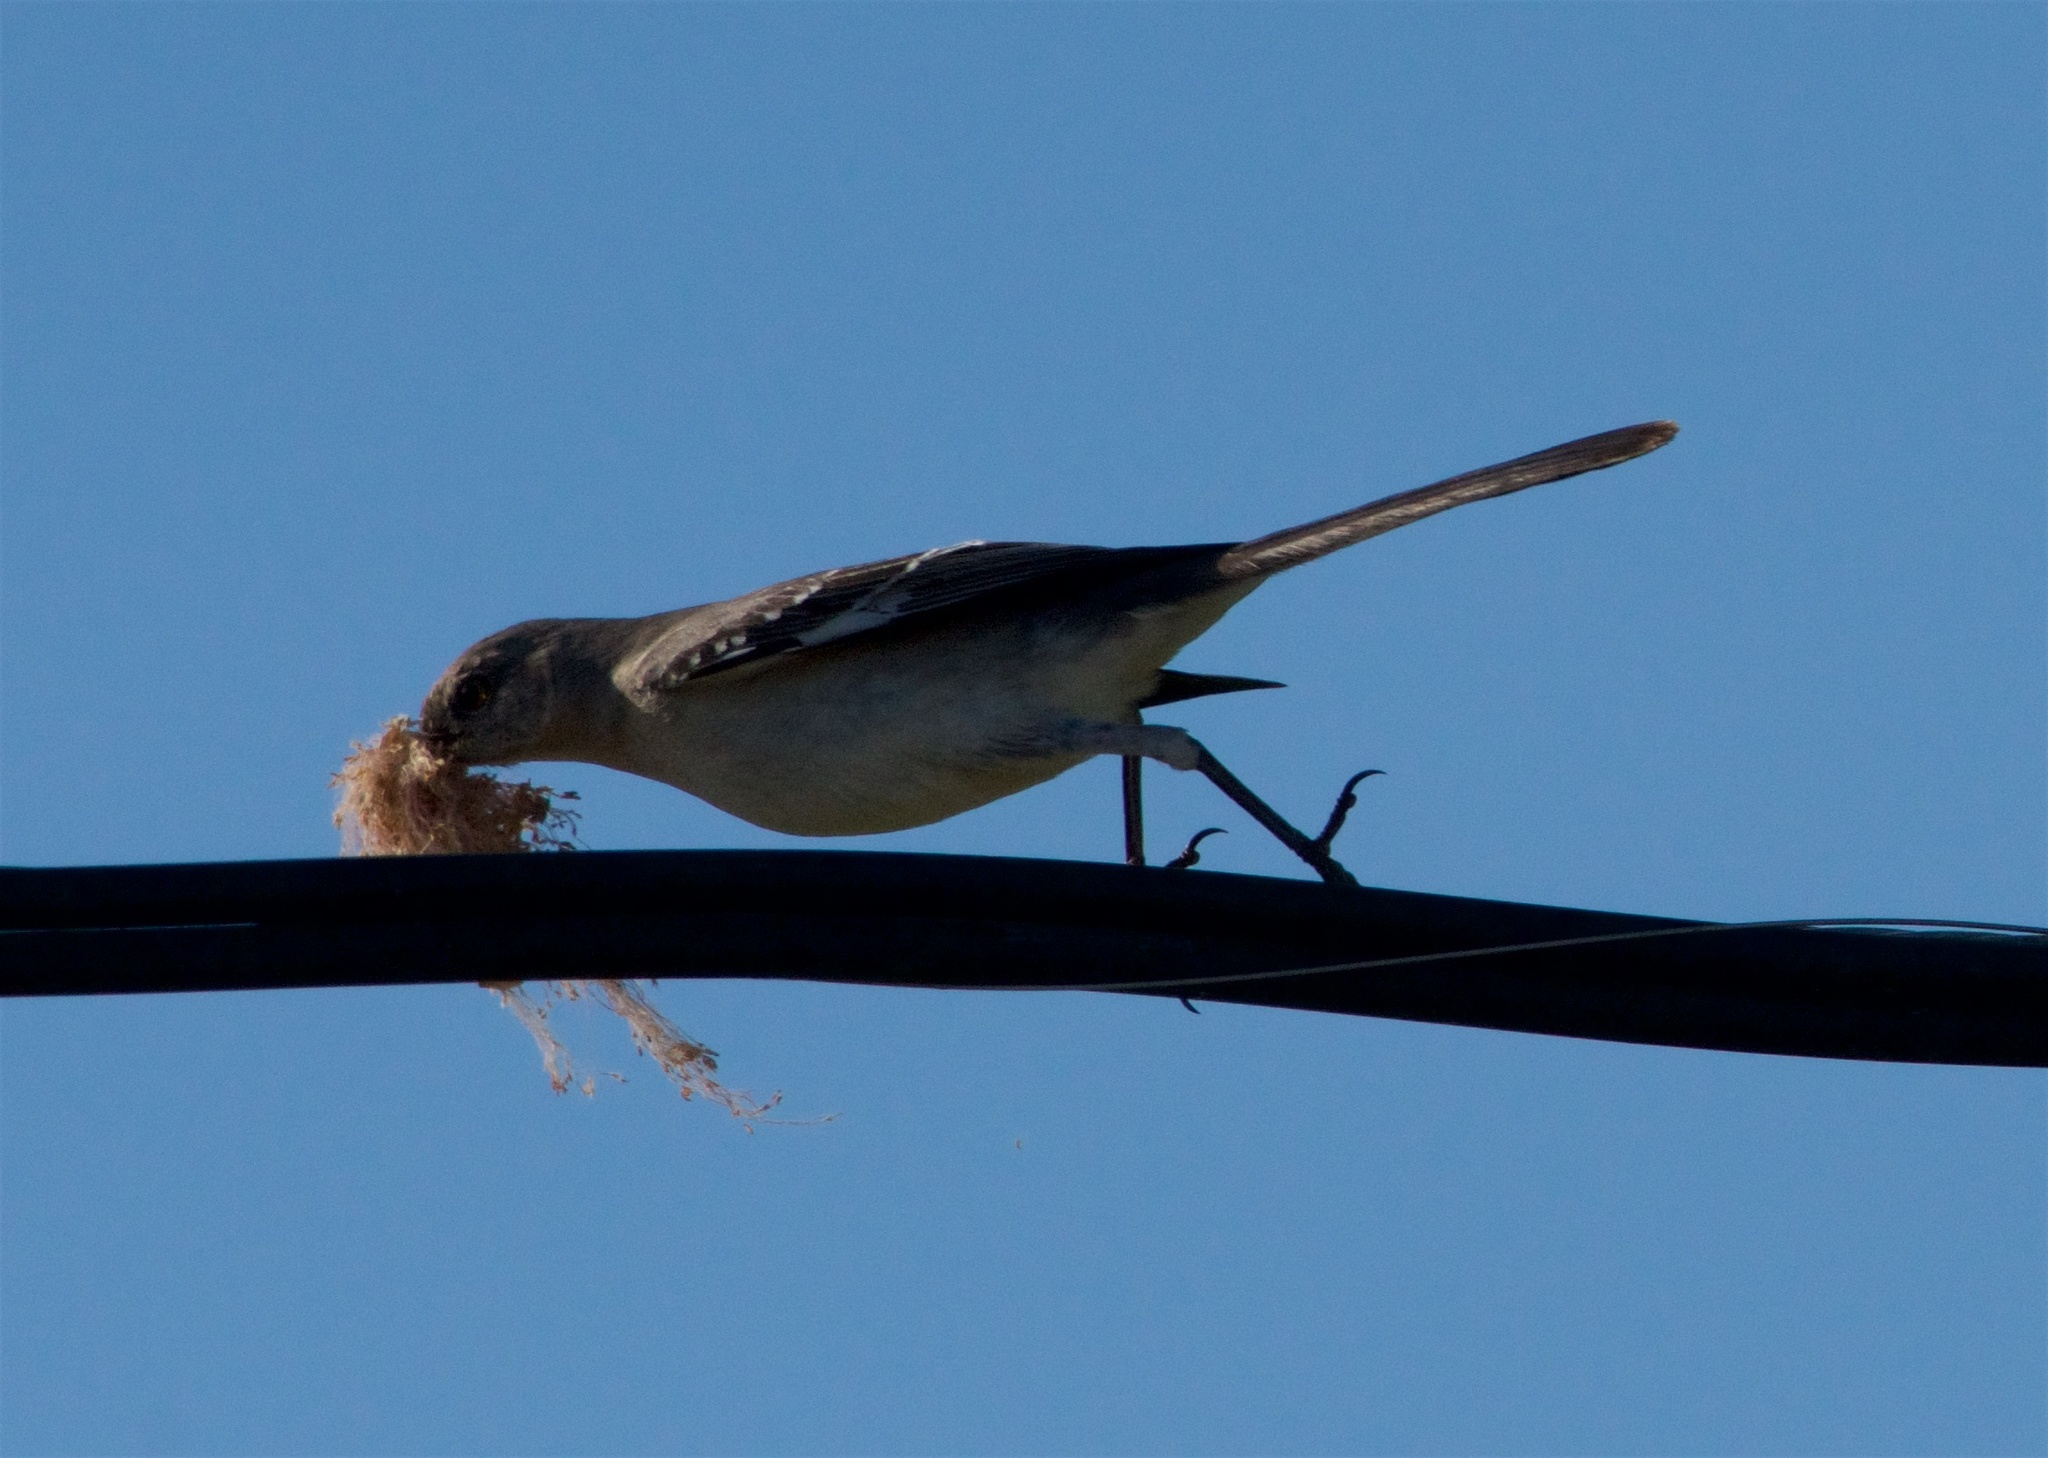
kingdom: Animalia
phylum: Chordata
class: Aves
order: Passeriformes
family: Mimidae
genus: Mimus
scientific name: Mimus polyglottos
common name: Northern mockingbird
